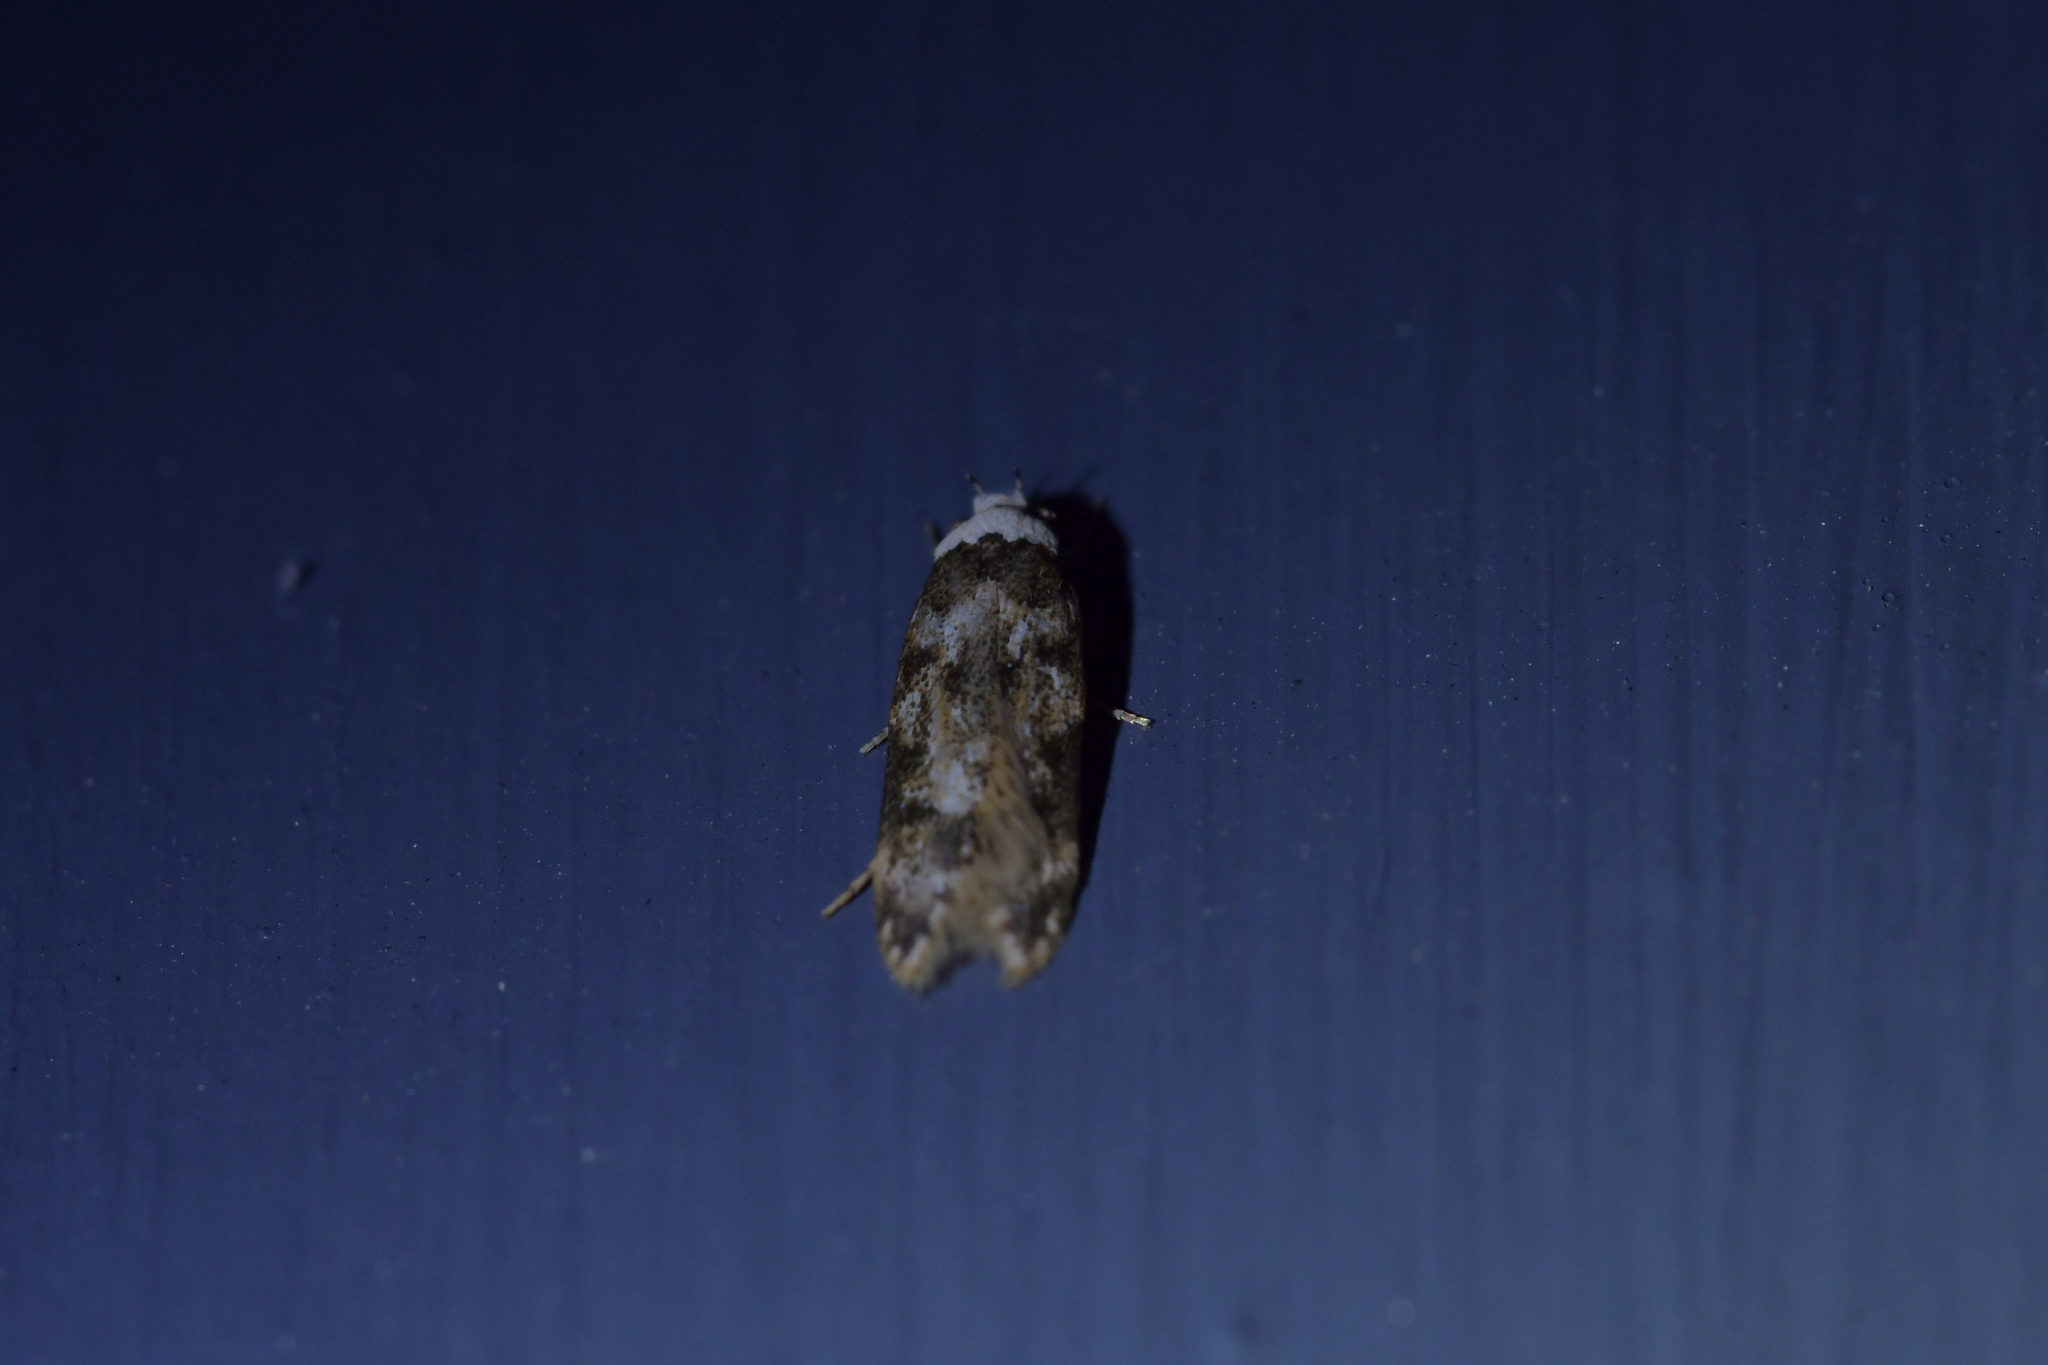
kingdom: Animalia
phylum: Arthropoda
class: Insecta
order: Lepidoptera
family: Oecophoridae
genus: Endrosis
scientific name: Endrosis sarcitrella
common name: White-shouldered house moth
